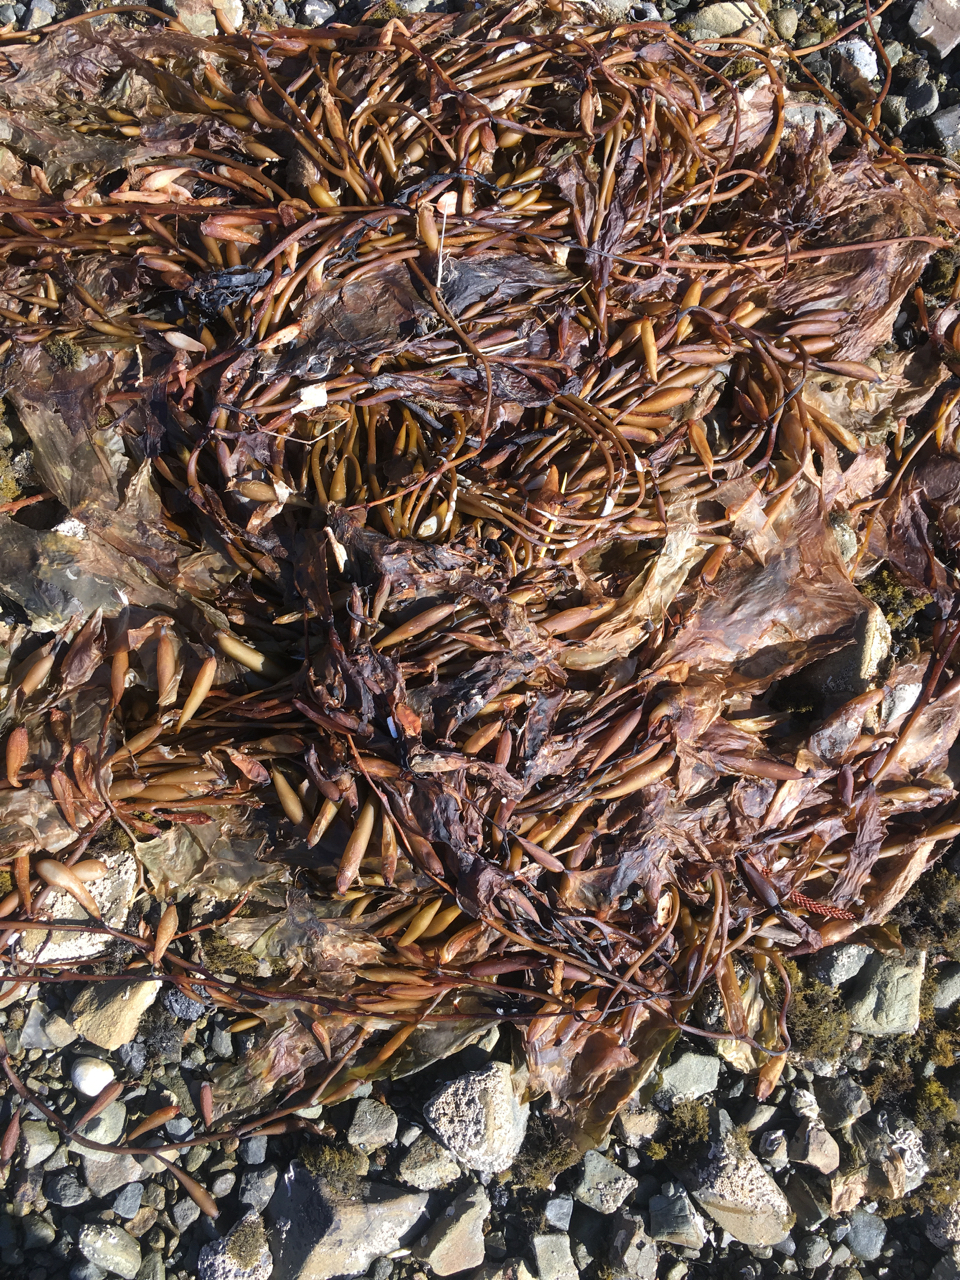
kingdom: Chromista
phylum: Ochrophyta
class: Phaeophyceae
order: Laminariales
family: Laminariaceae
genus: Macrocystis
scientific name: Macrocystis pyrifera
